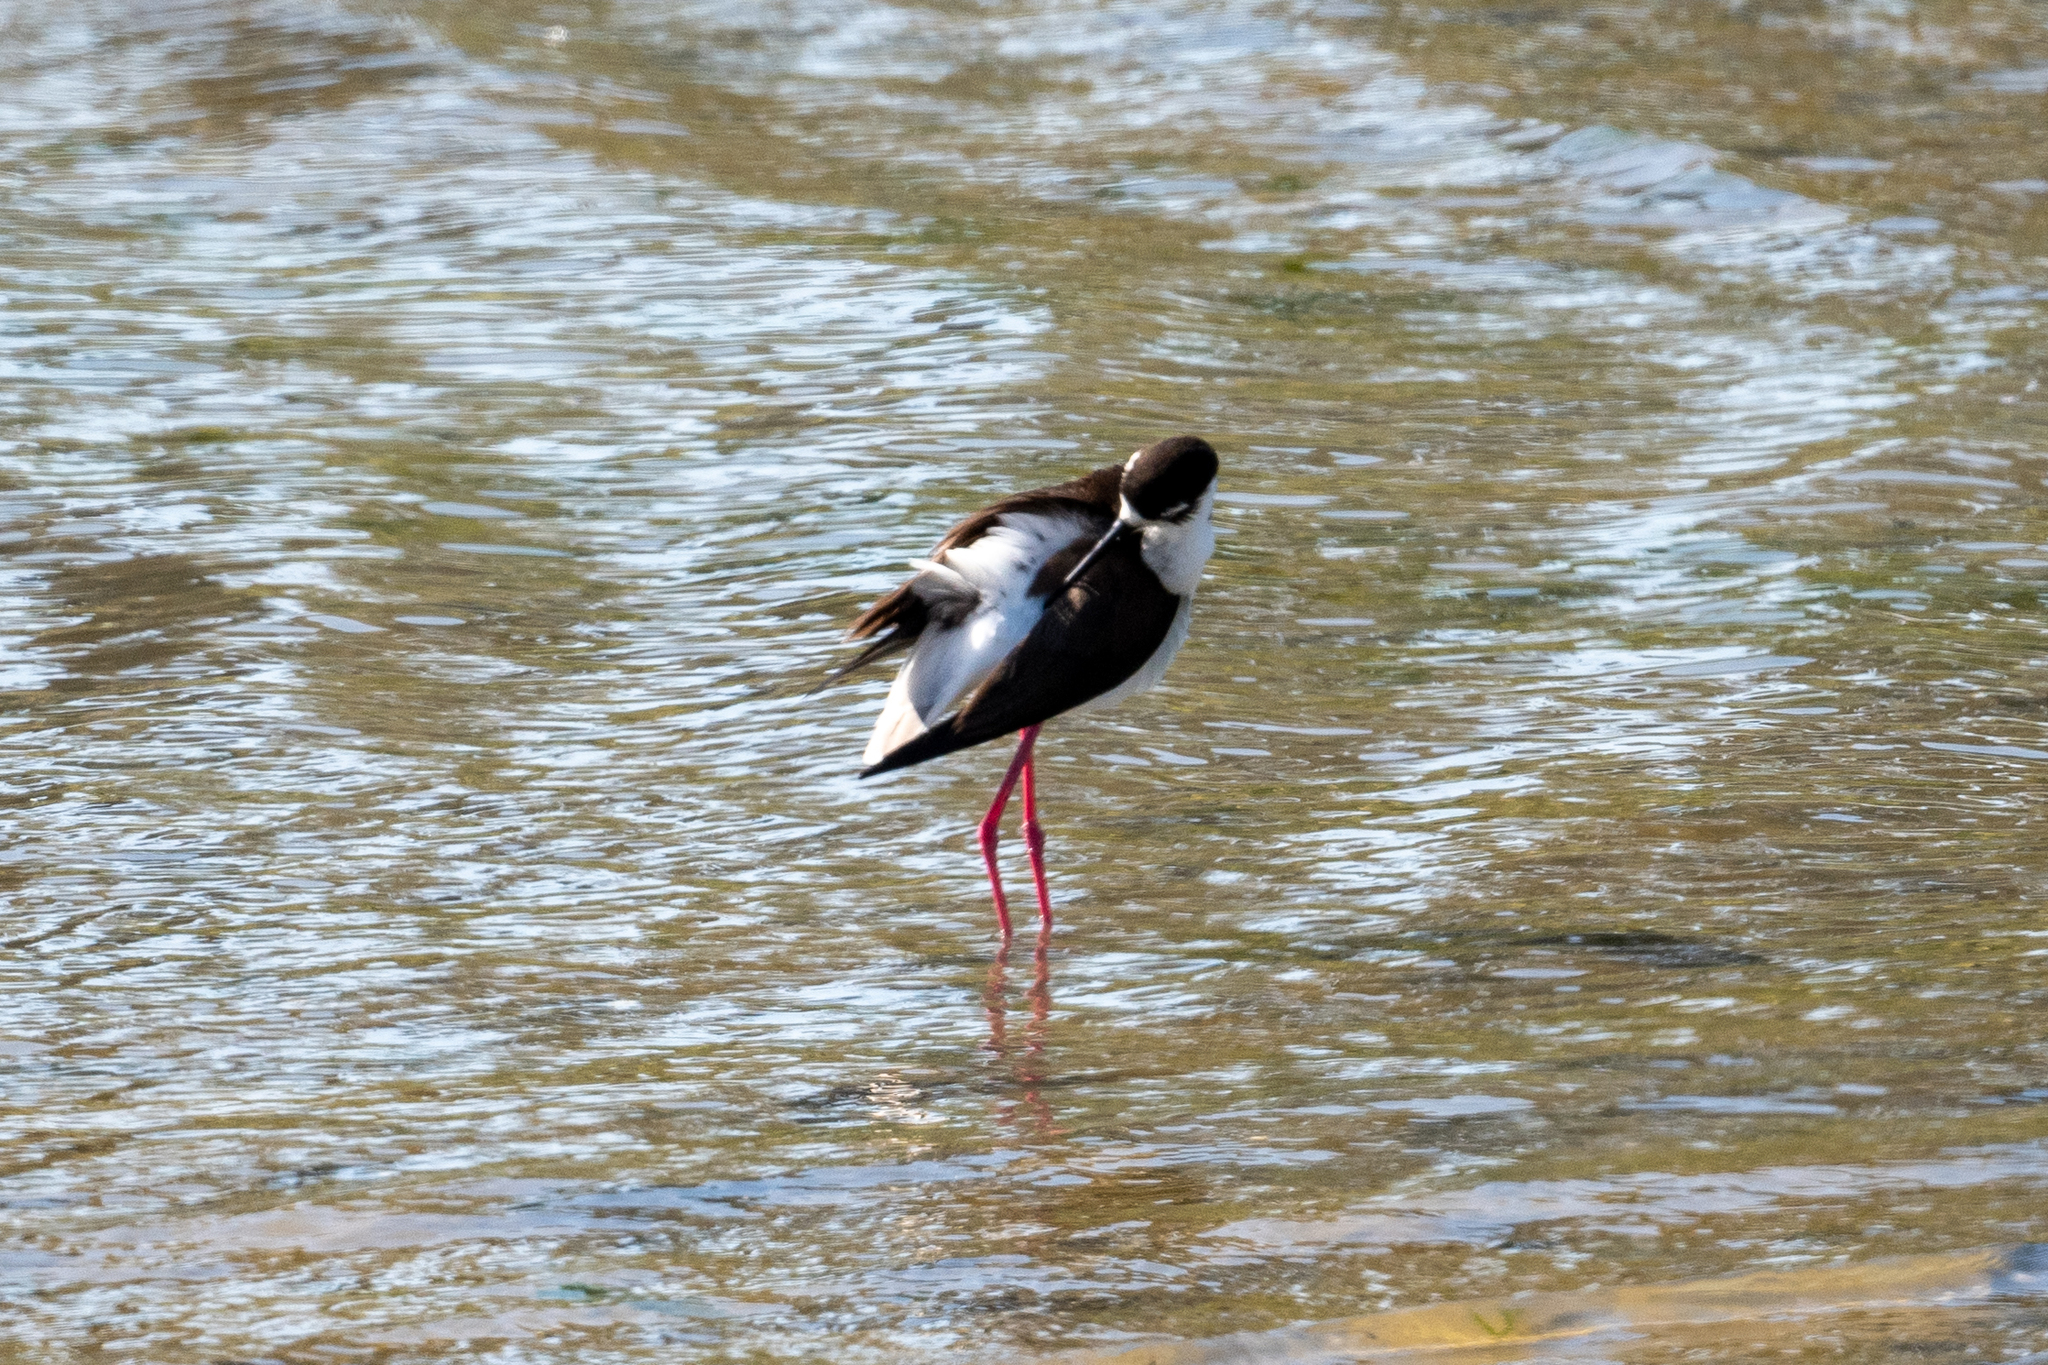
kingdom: Animalia
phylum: Chordata
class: Aves
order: Charadriiformes
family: Recurvirostridae
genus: Himantopus
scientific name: Himantopus mexicanus
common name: Black-necked stilt
